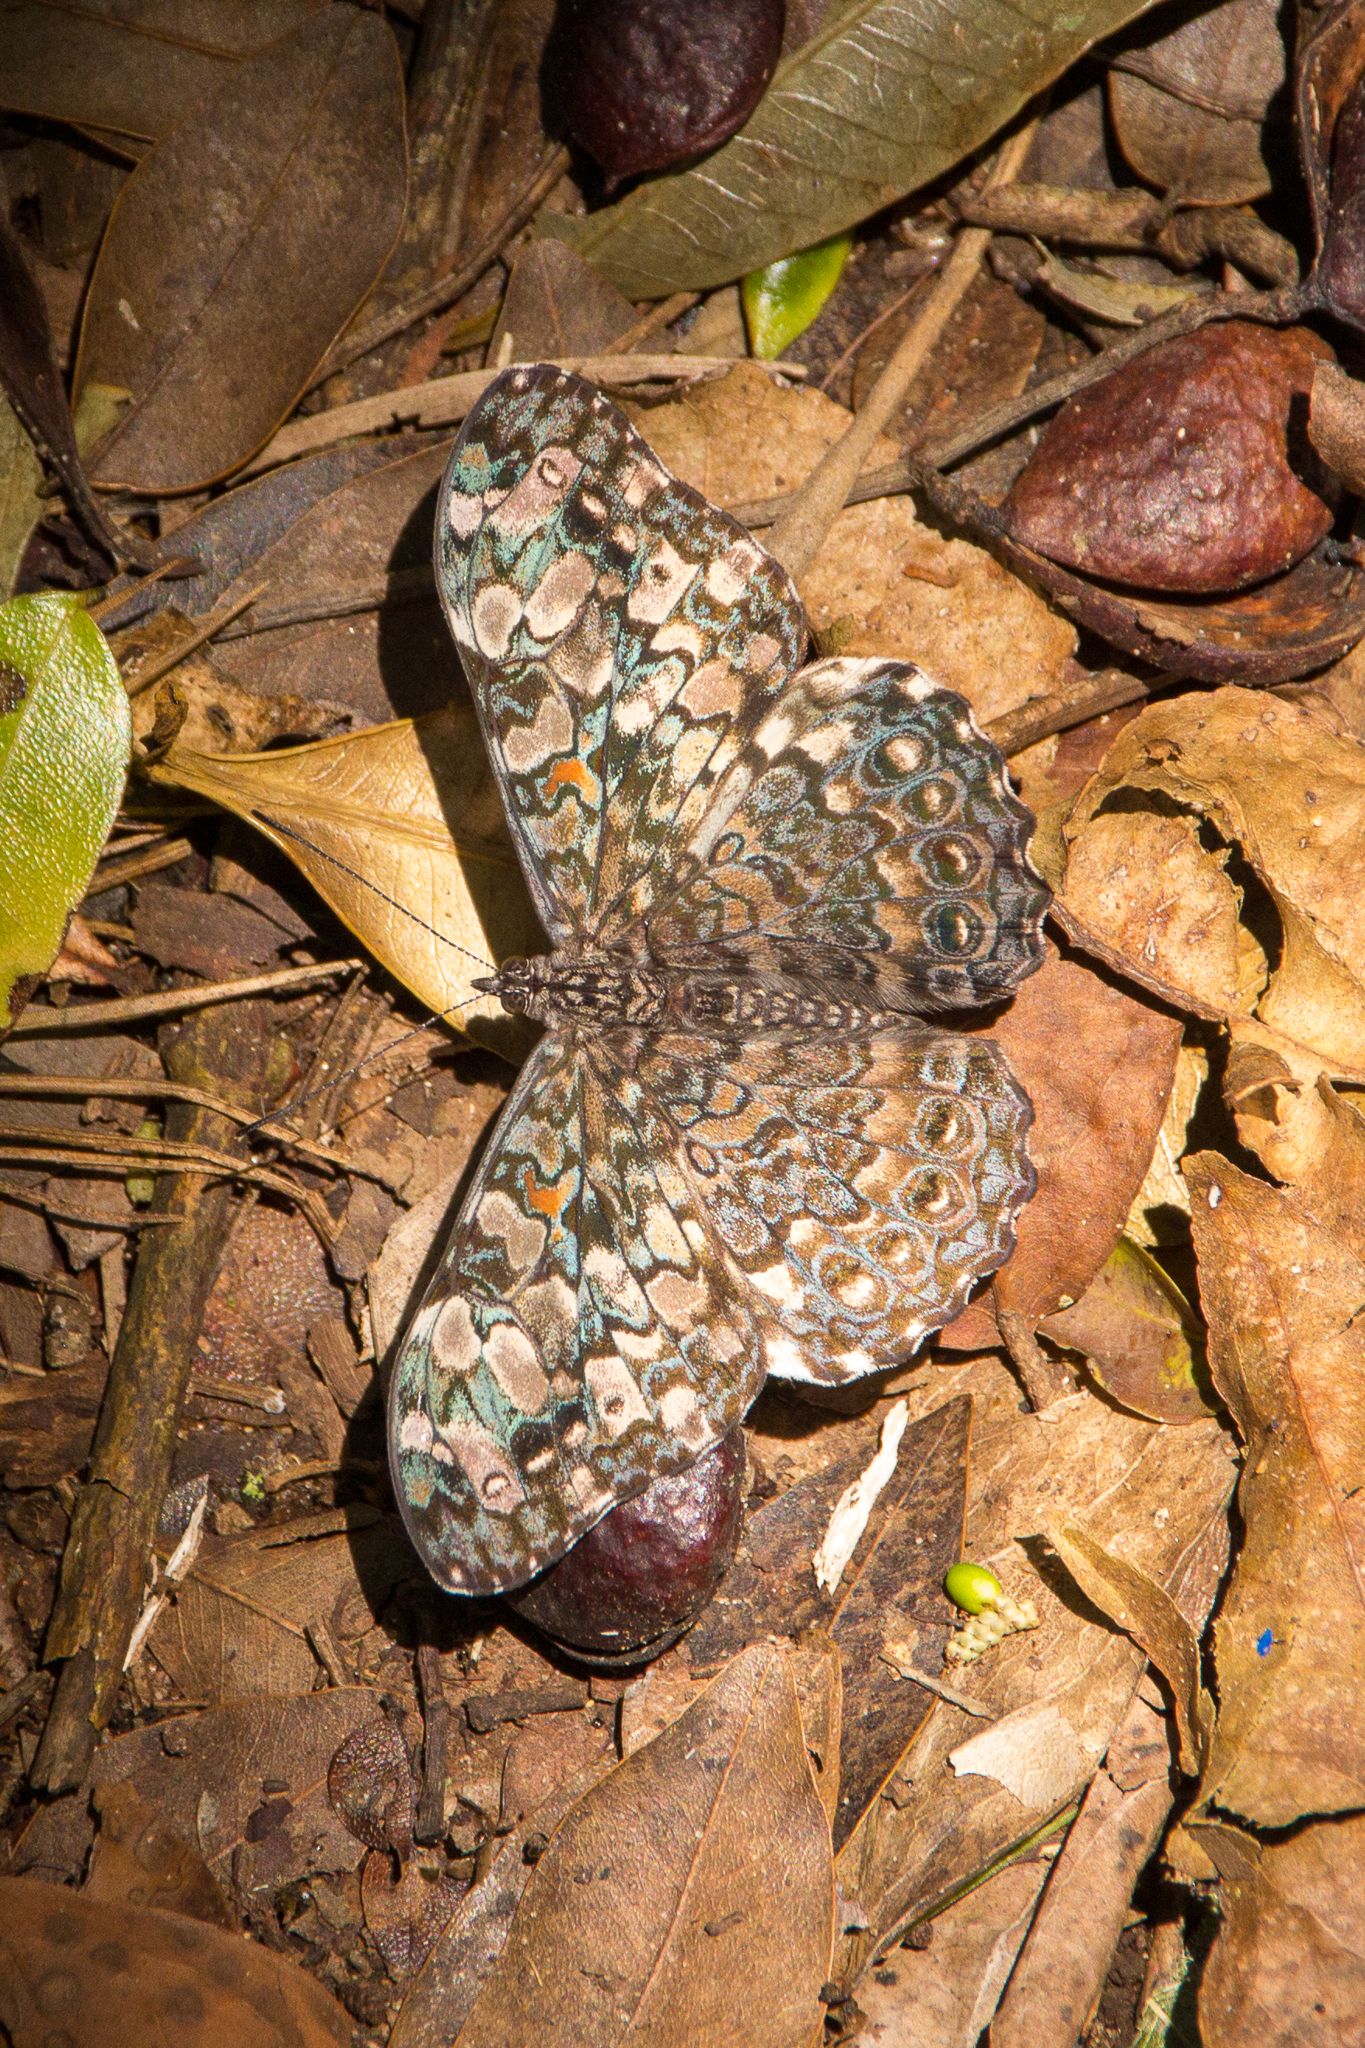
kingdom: Animalia
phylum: Arthropoda
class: Insecta
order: Lepidoptera
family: Nymphalidae
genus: Hamadryas
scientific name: Hamadryas epinome
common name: Epinome cracker
